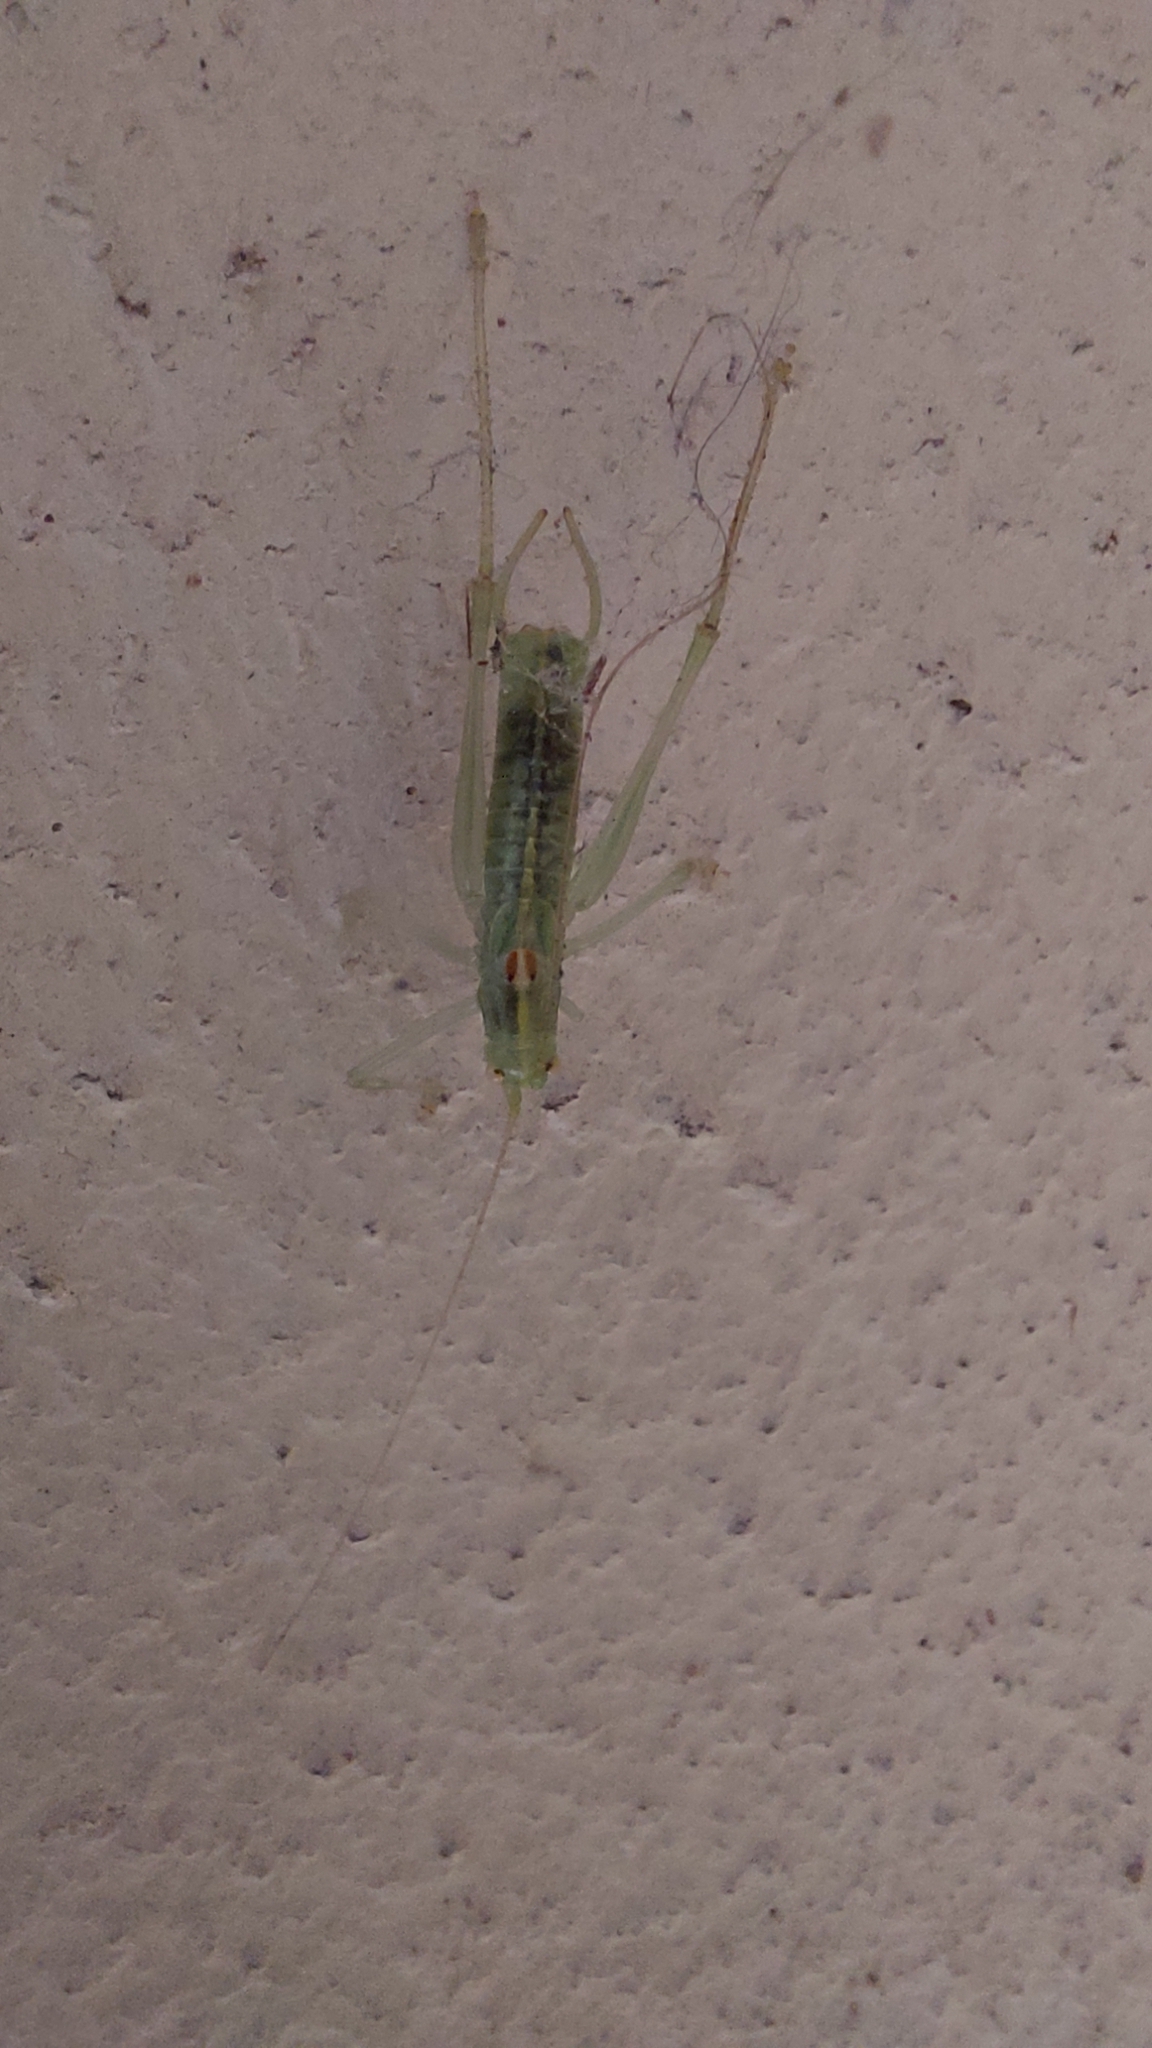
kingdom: Animalia
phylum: Arthropoda
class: Insecta
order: Orthoptera
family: Tettigoniidae
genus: Meconema
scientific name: Meconema meridionale
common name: Southern oak bush-cricket
